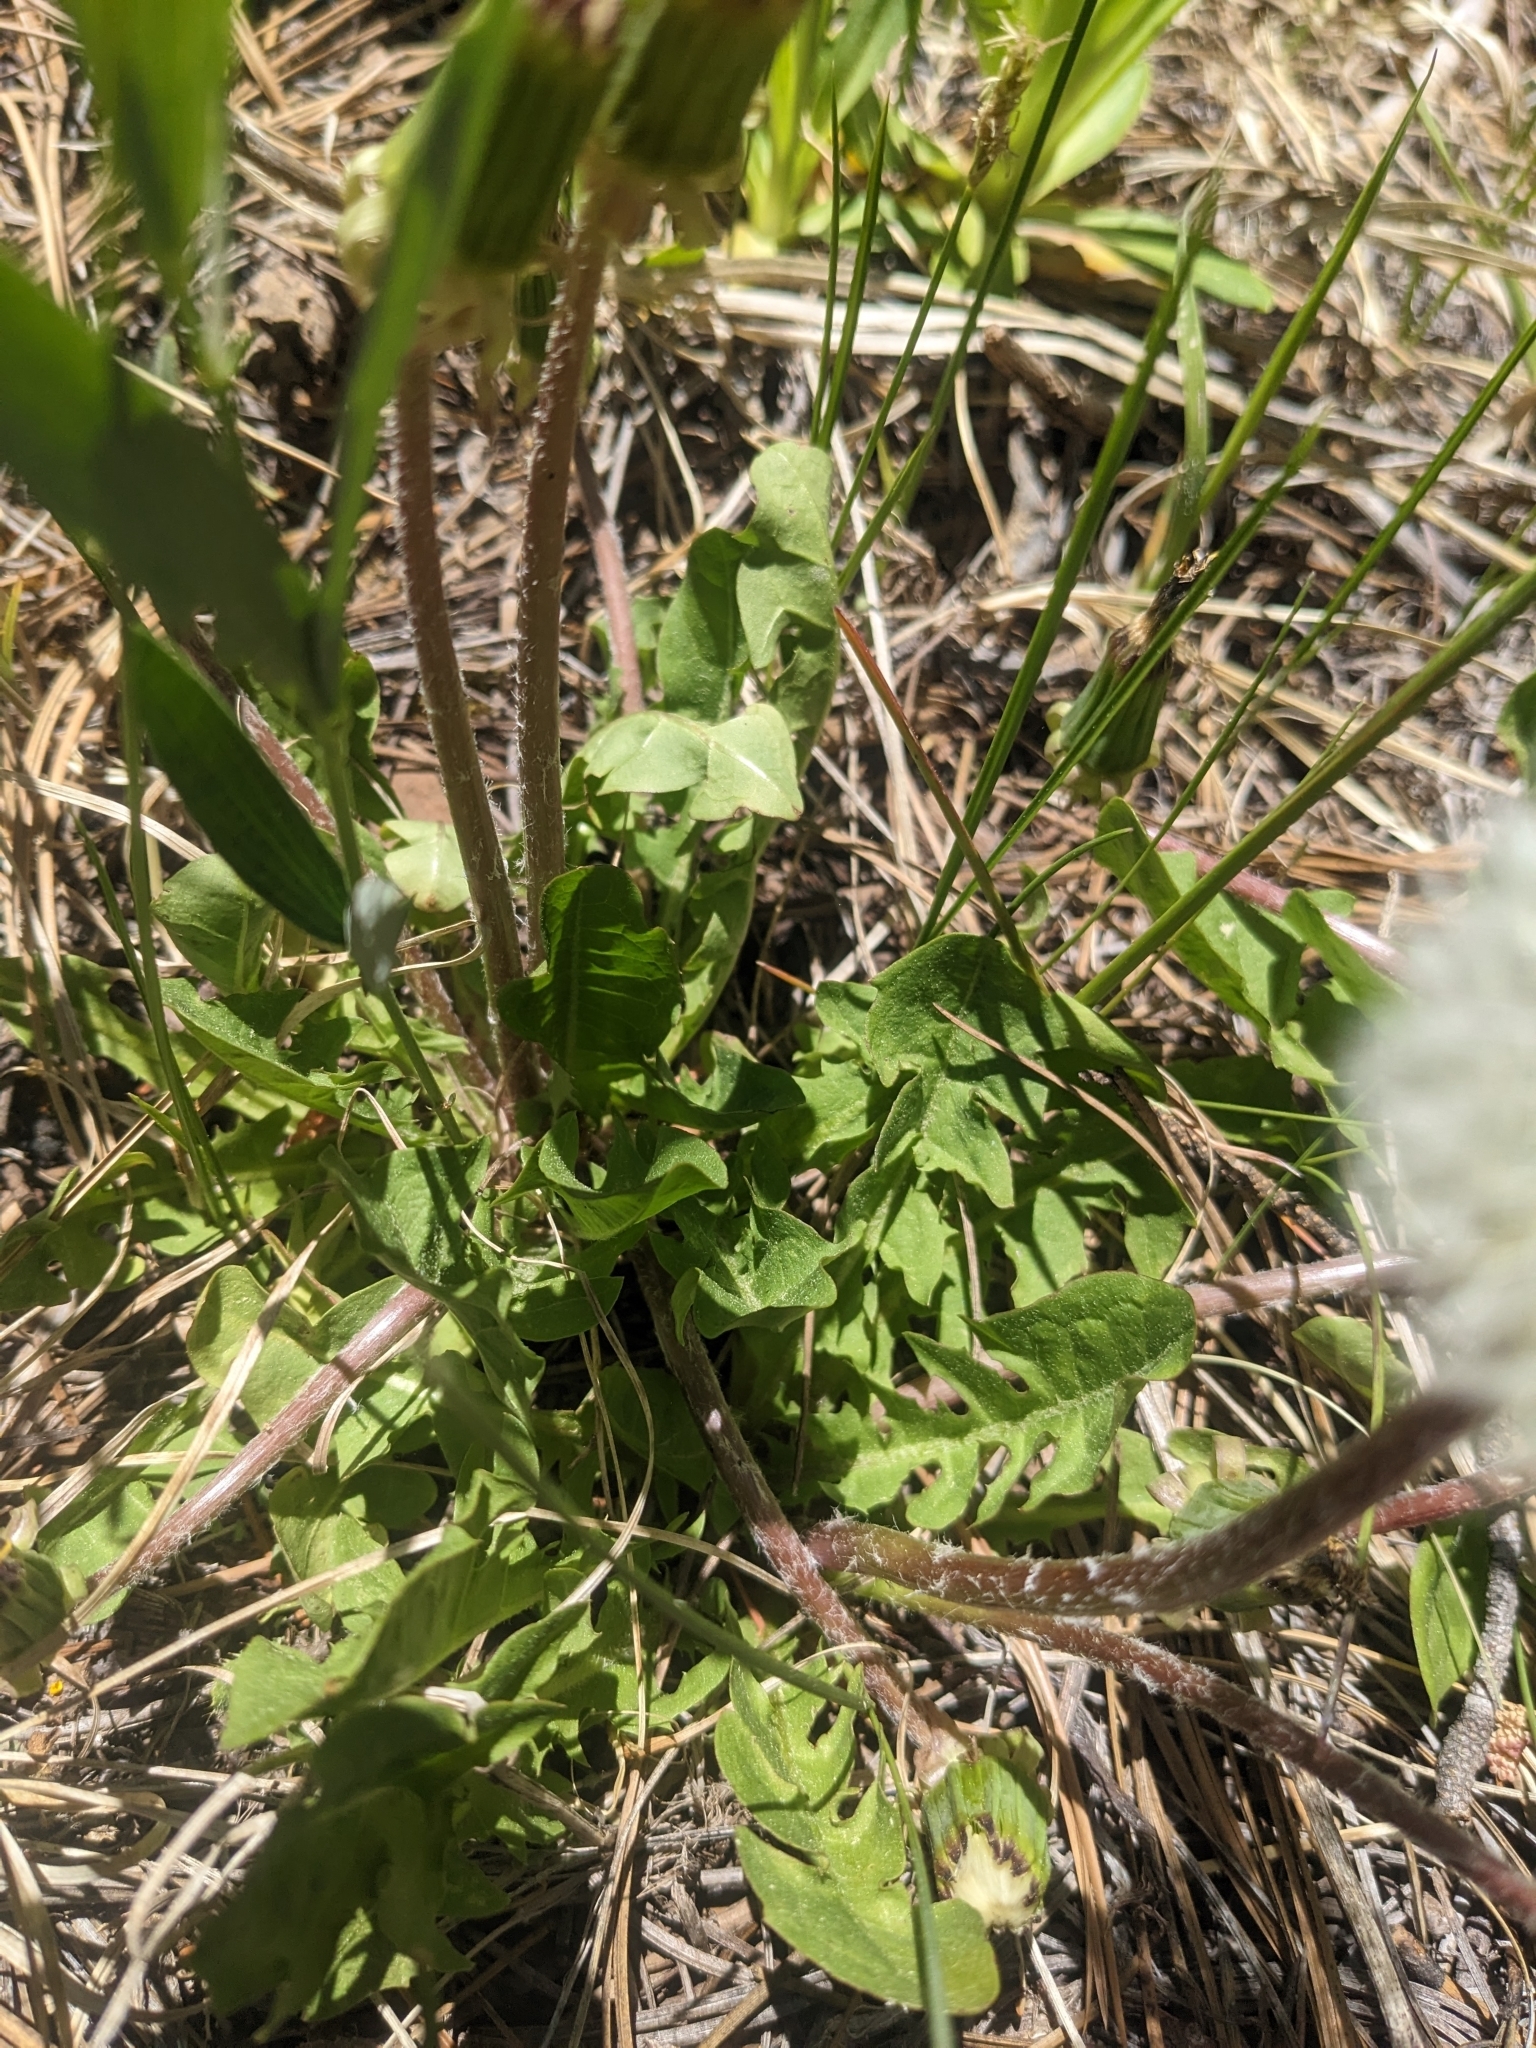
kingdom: Plantae
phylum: Tracheophyta
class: Magnoliopsida
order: Asterales
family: Asteraceae
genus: Taraxacum
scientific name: Taraxacum officinale
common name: Common dandelion
